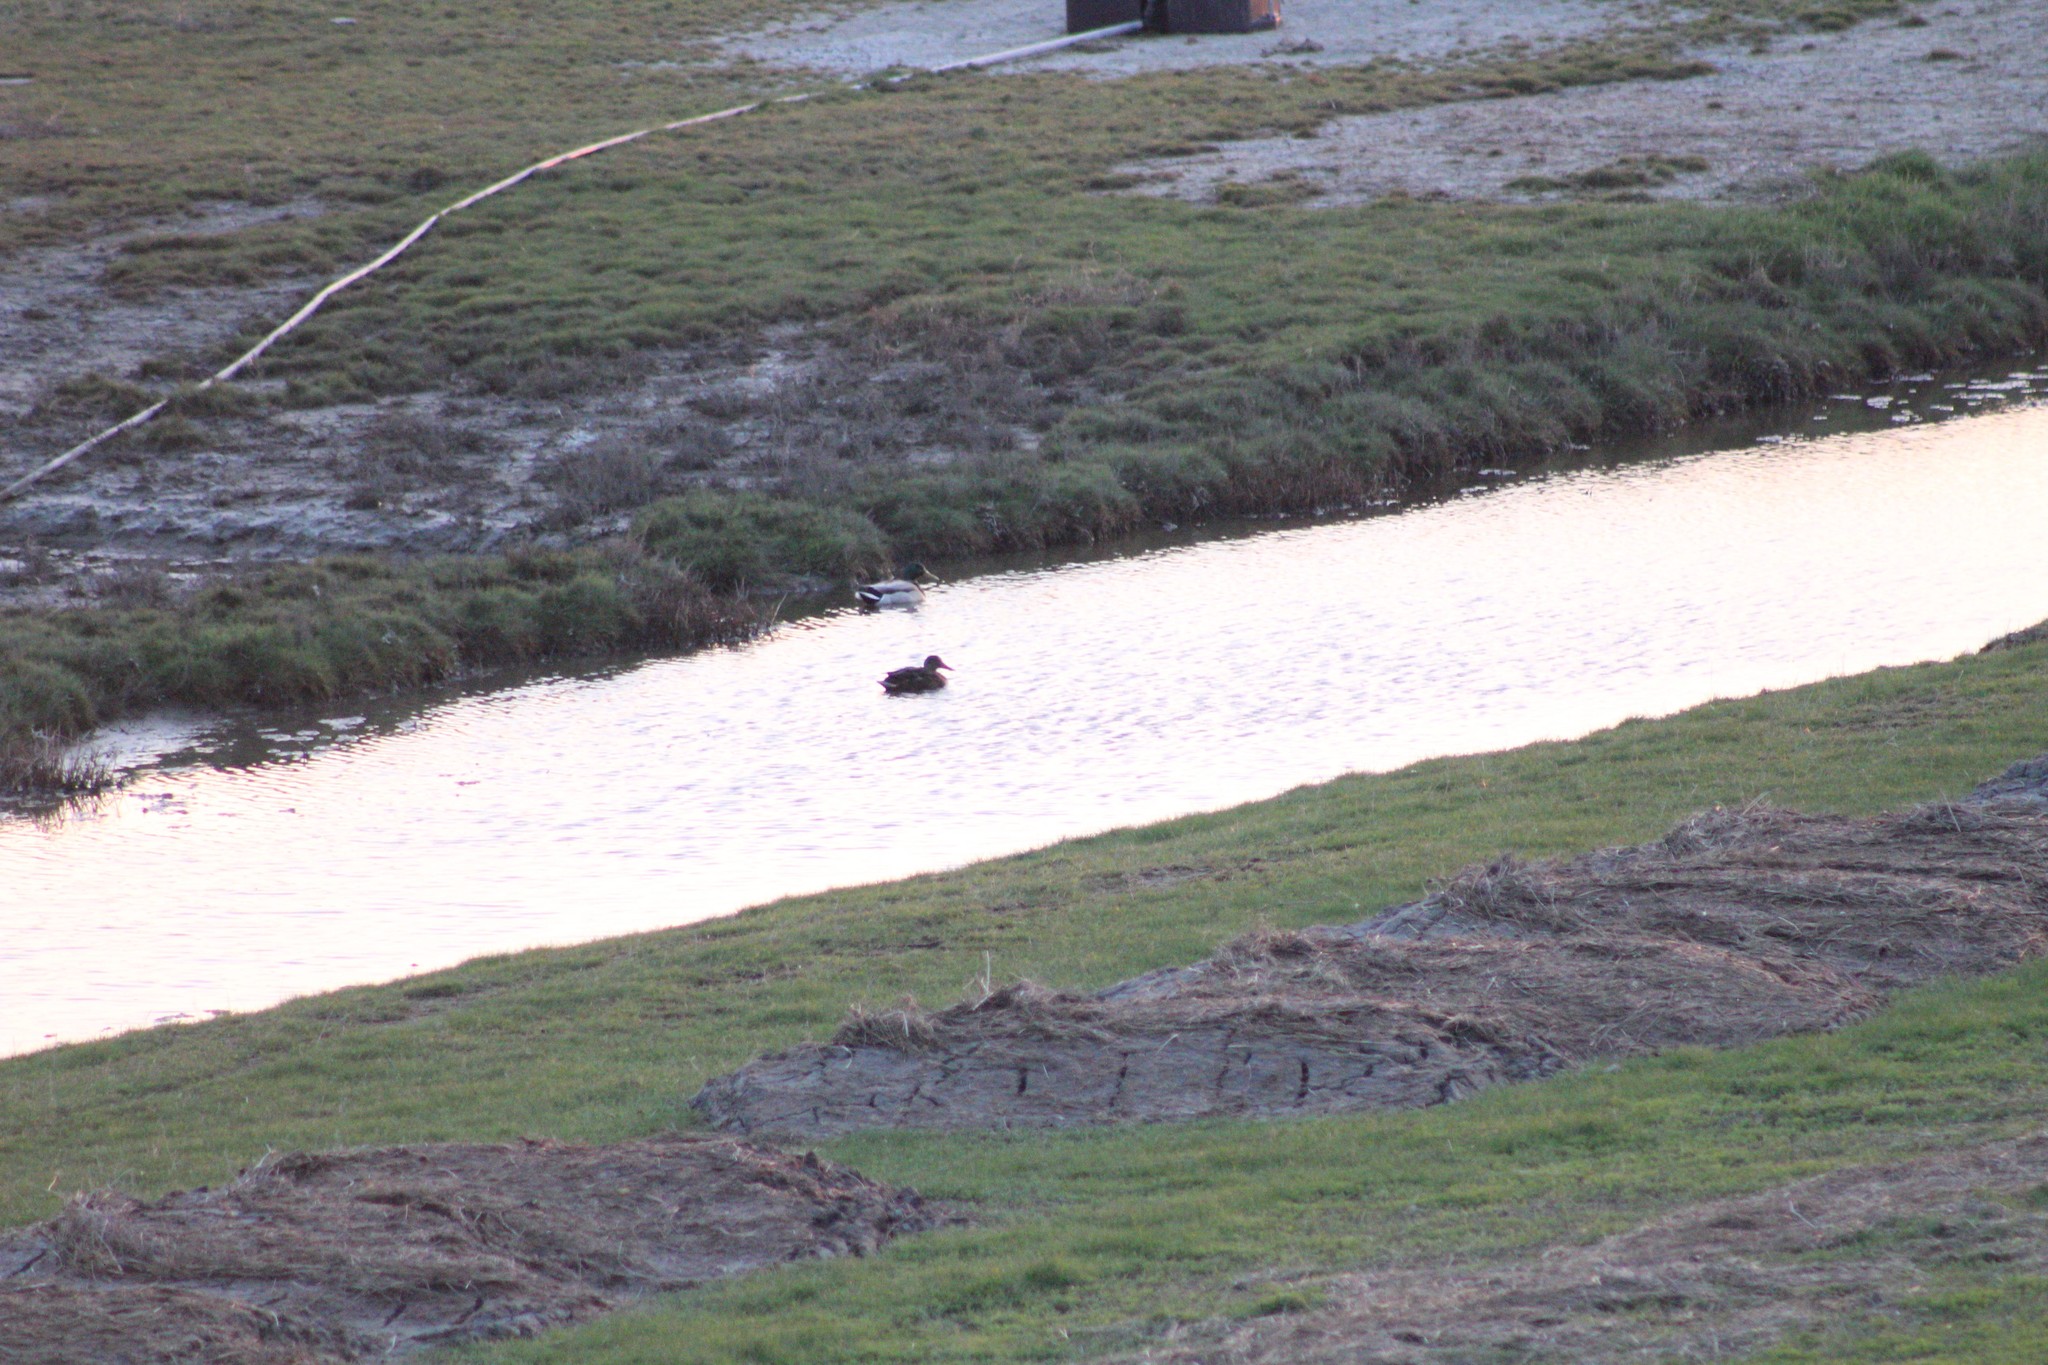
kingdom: Animalia
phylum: Chordata
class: Aves
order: Anseriformes
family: Anatidae
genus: Anas
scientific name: Anas platyrhynchos
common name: Mallard
